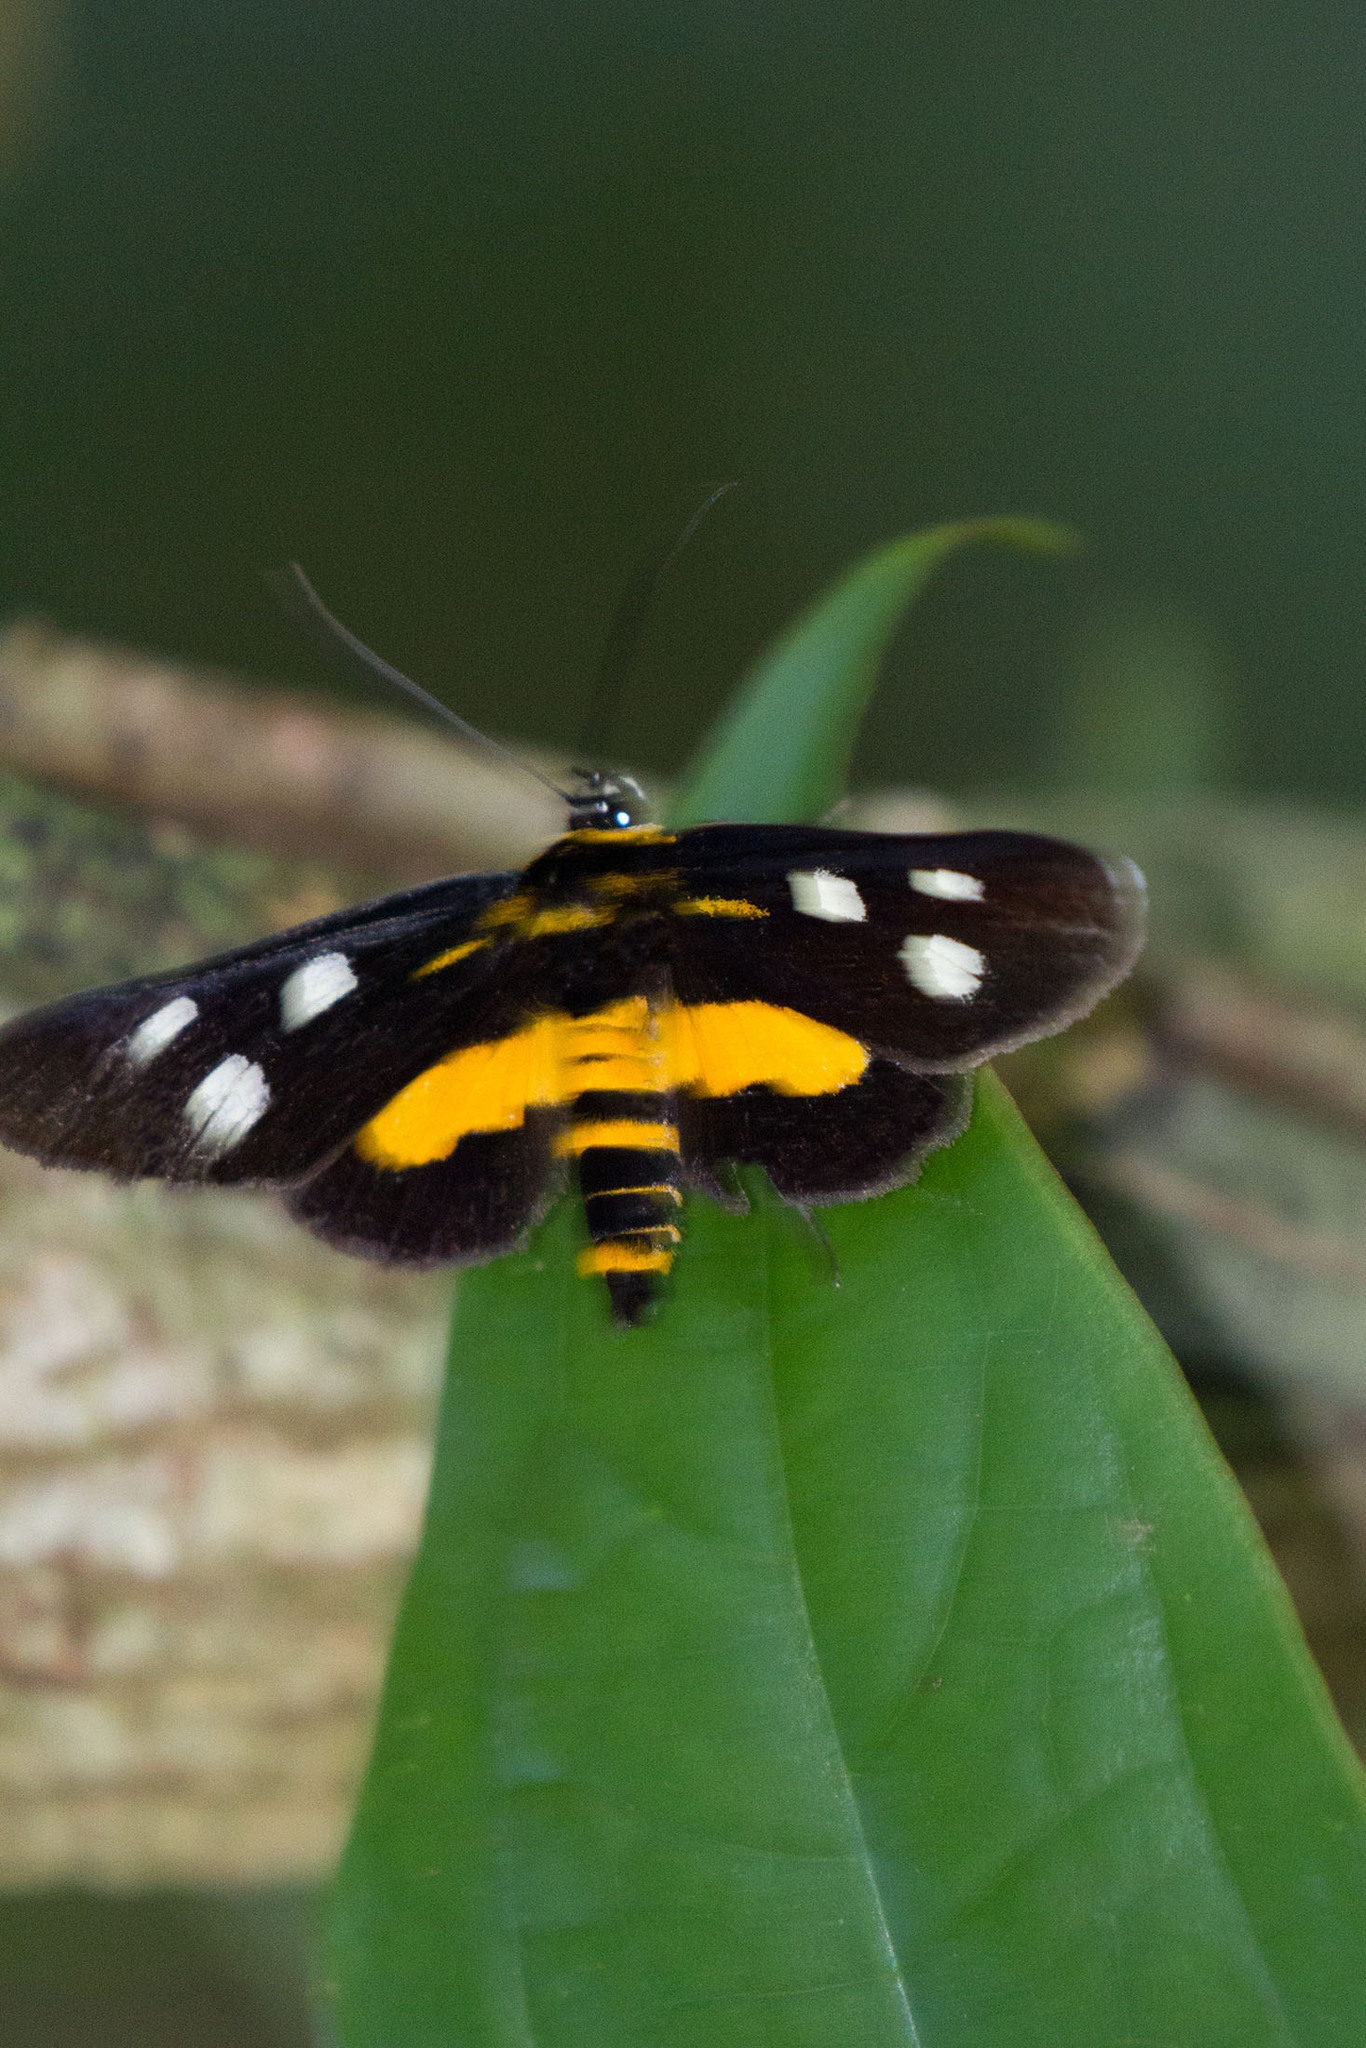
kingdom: Animalia
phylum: Arthropoda
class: Insecta
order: Lepidoptera
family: Noctuidae
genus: Burgena
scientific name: Burgena varia
